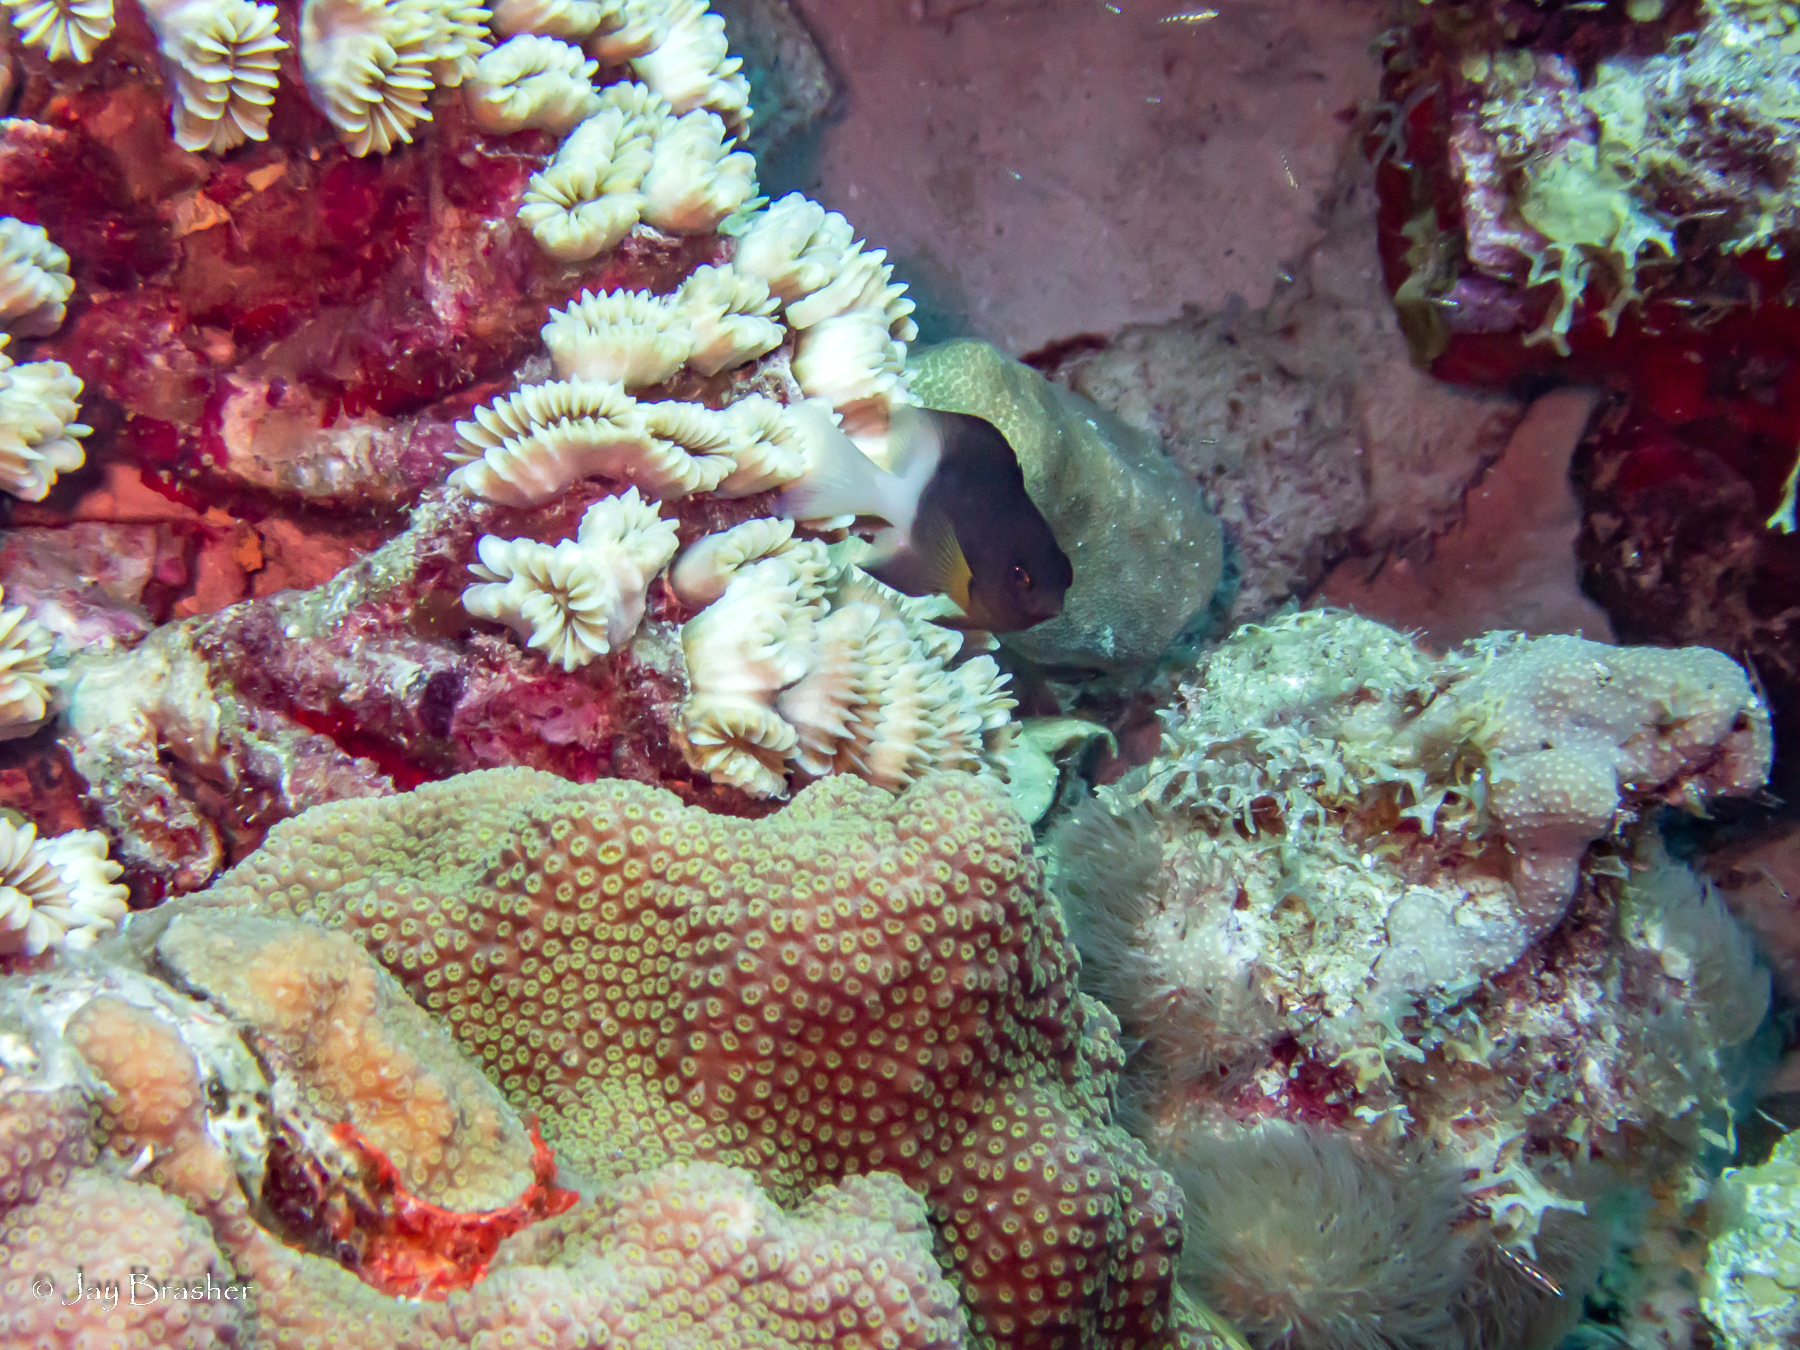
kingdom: Animalia
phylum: Chordata
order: Perciformes
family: Pomacentridae
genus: Stegastes
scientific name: Stegastes partitus
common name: Bicolor damselfish
